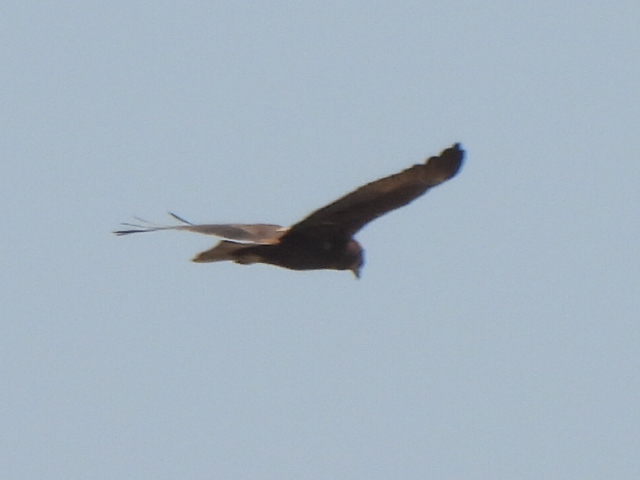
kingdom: Animalia
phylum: Chordata
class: Aves
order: Accipitriformes
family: Accipitridae
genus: Circus
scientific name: Circus aeruginosus
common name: Western marsh harrier
